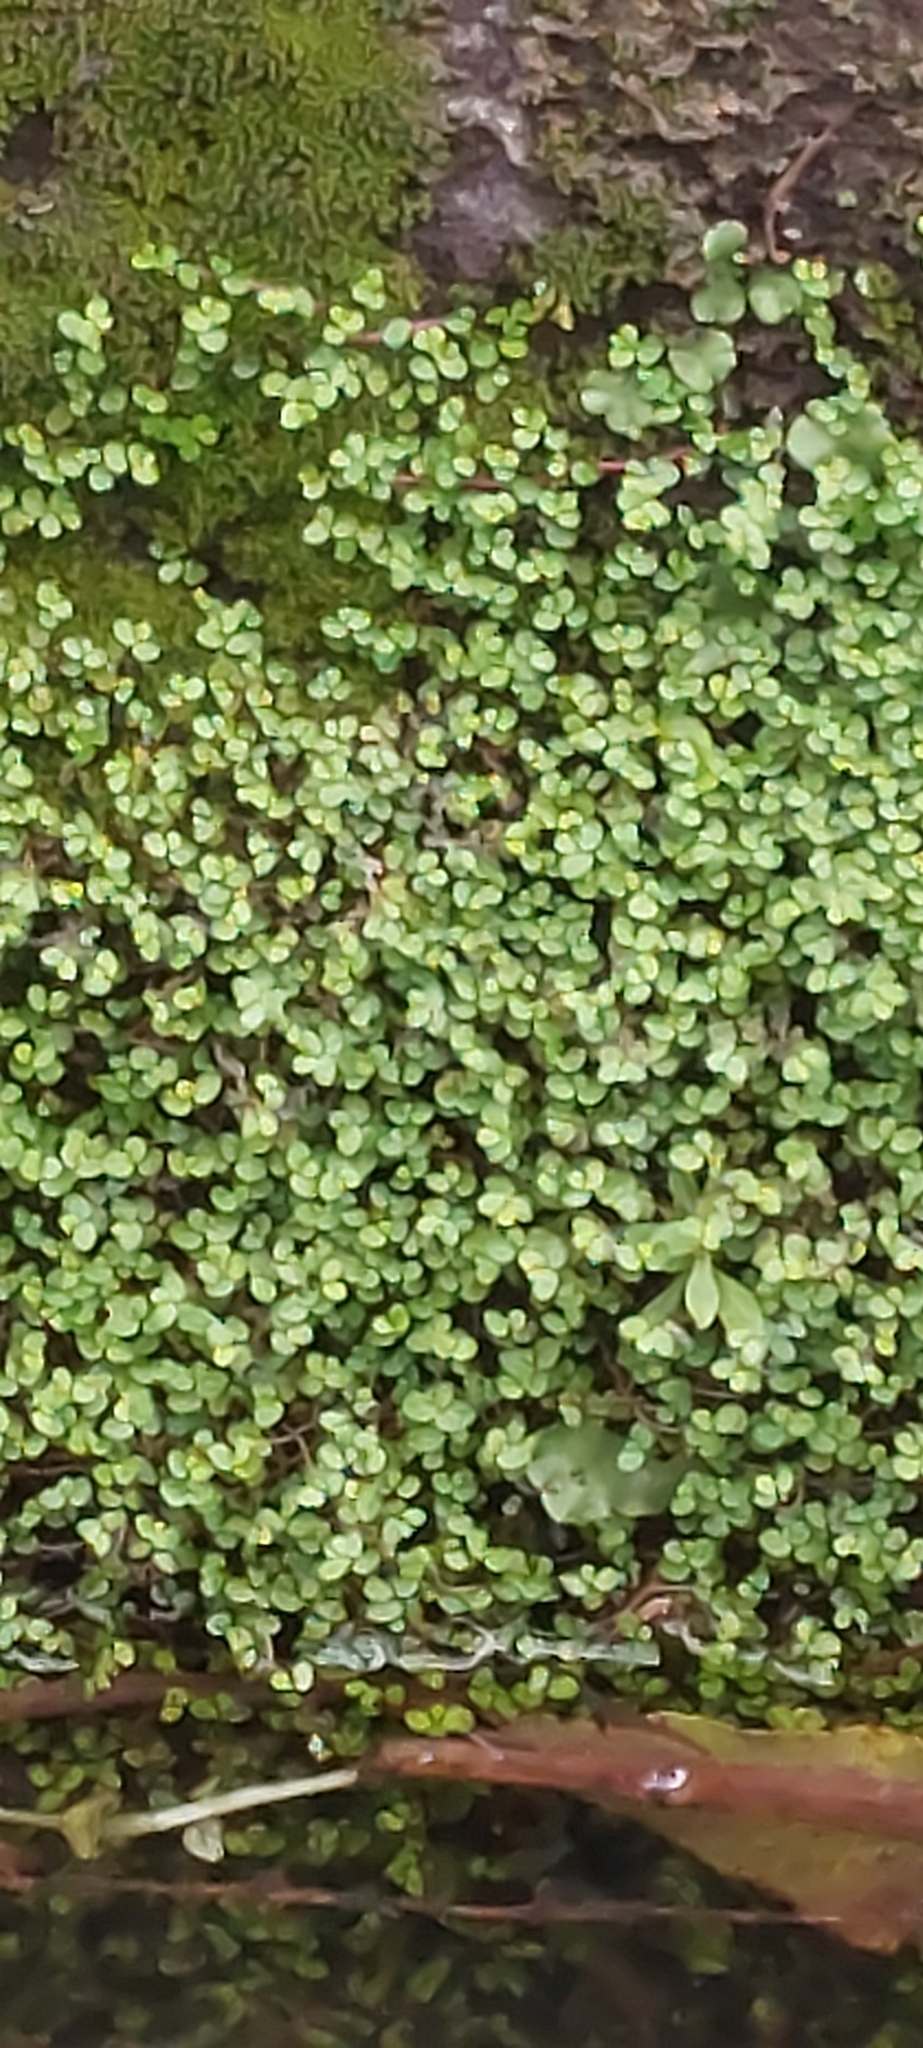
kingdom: Plantae
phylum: Tracheophyta
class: Magnoliopsida
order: Rosales
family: Urticaceae
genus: Soleirolia
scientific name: Soleirolia soleirolii
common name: Mind-your-own-business
